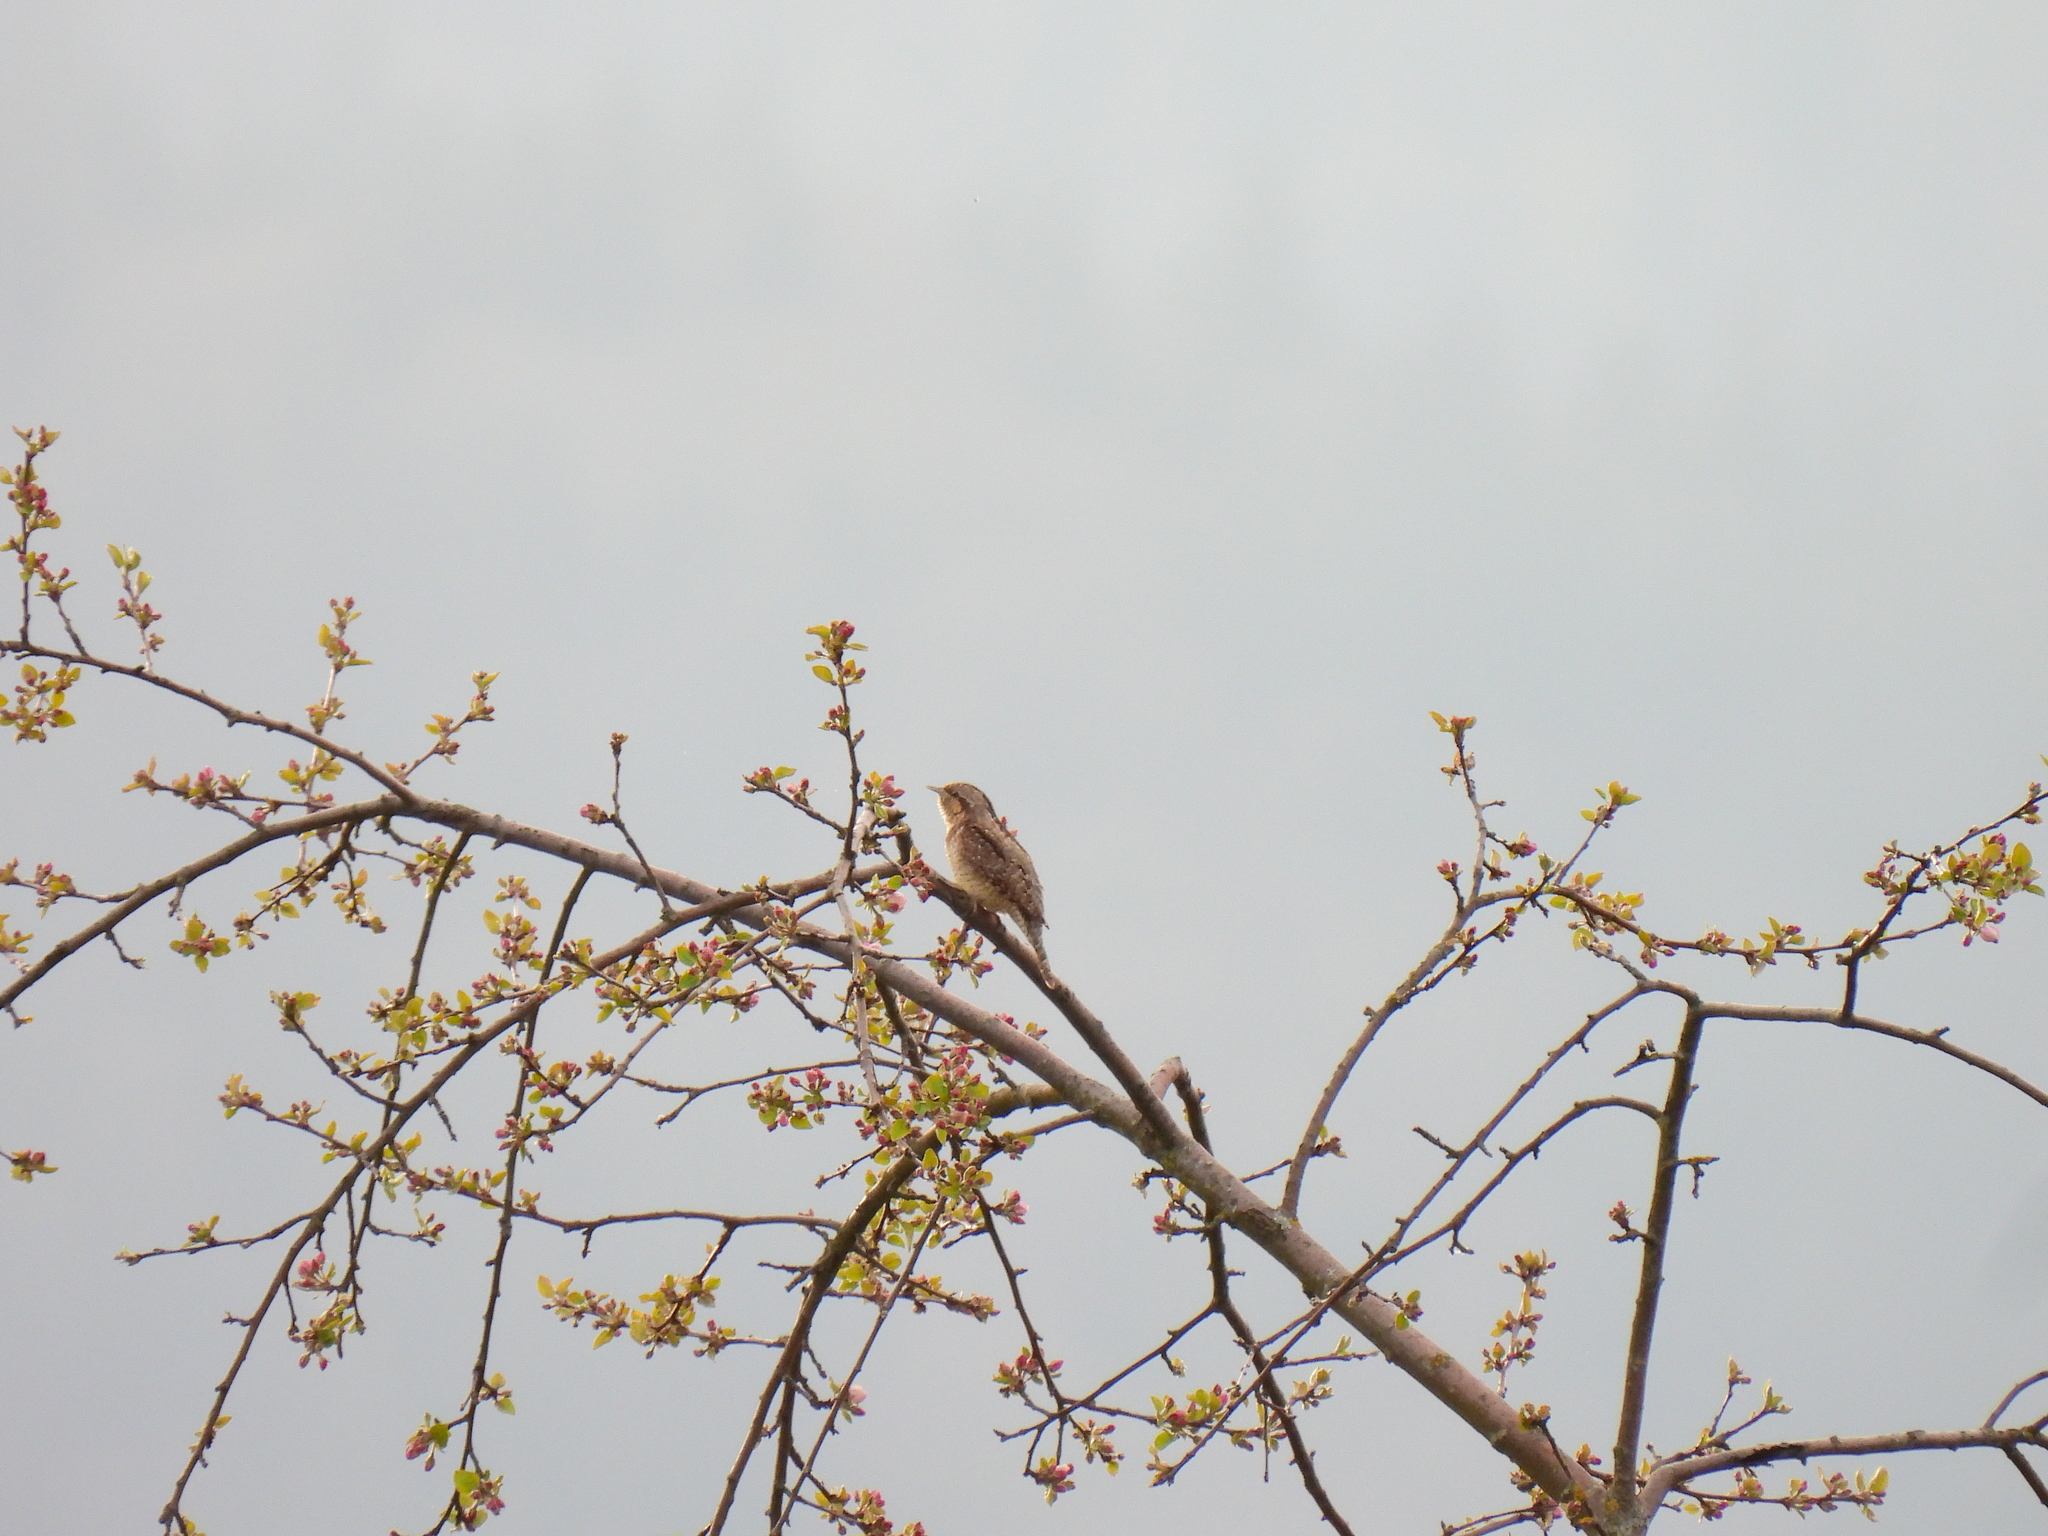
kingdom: Animalia
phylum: Chordata
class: Aves
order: Piciformes
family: Picidae
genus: Jynx
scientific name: Jynx torquilla
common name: Eurasian wryneck
